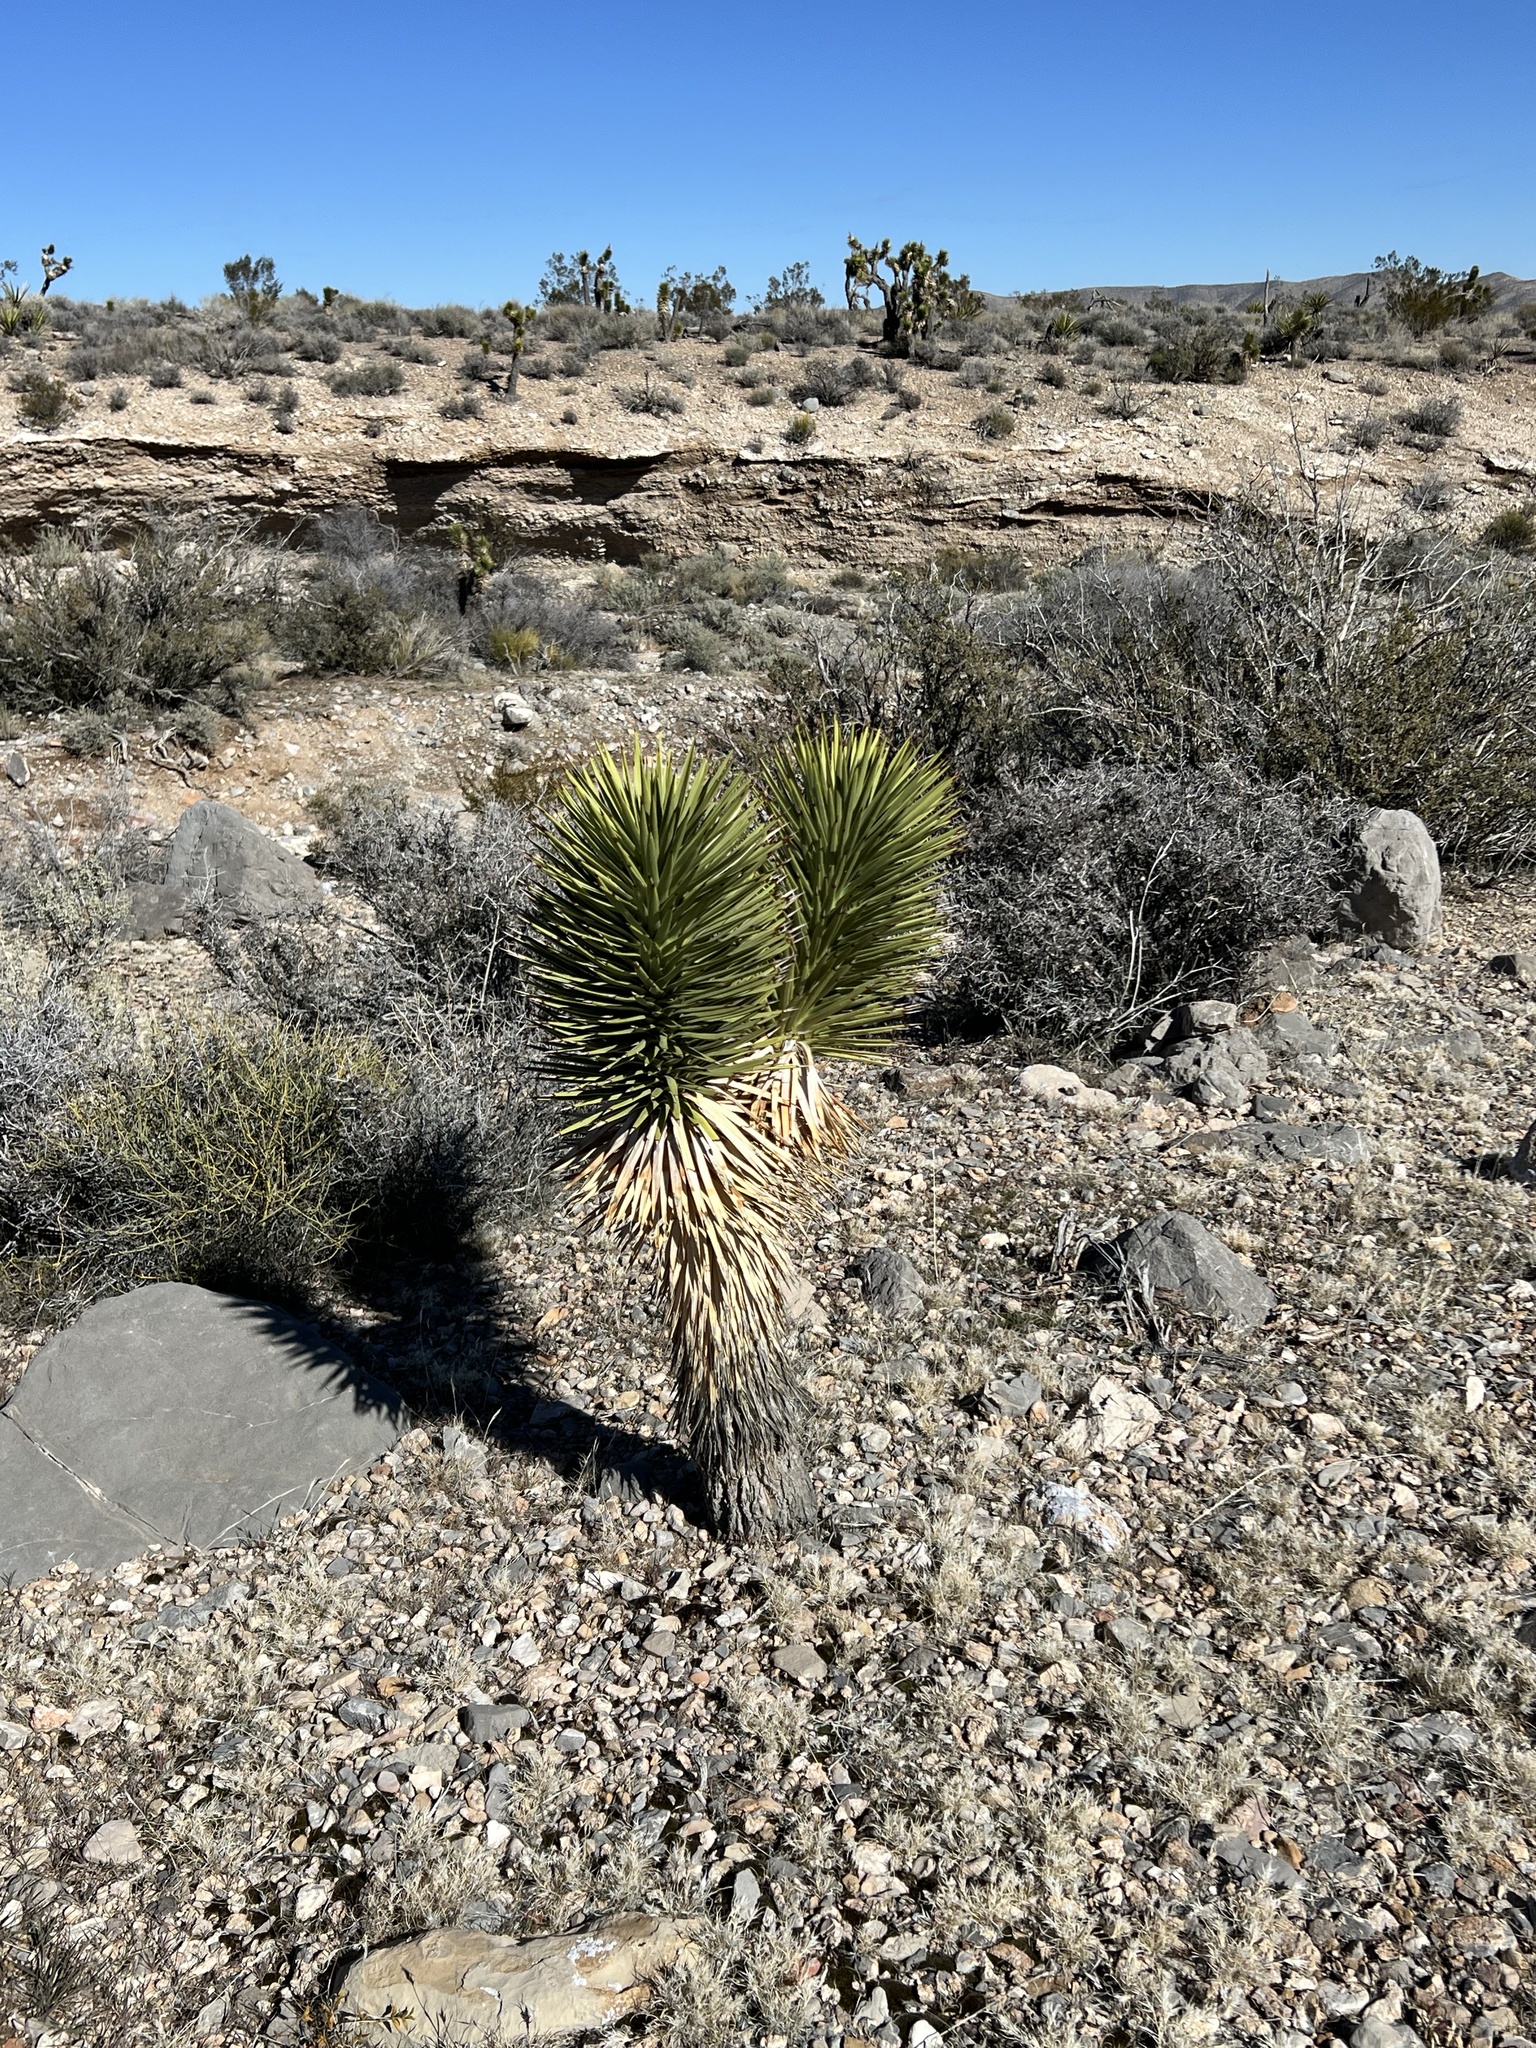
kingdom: Plantae
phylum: Tracheophyta
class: Liliopsida
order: Asparagales
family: Asparagaceae
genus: Yucca
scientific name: Yucca brevifolia
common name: Joshua tree
